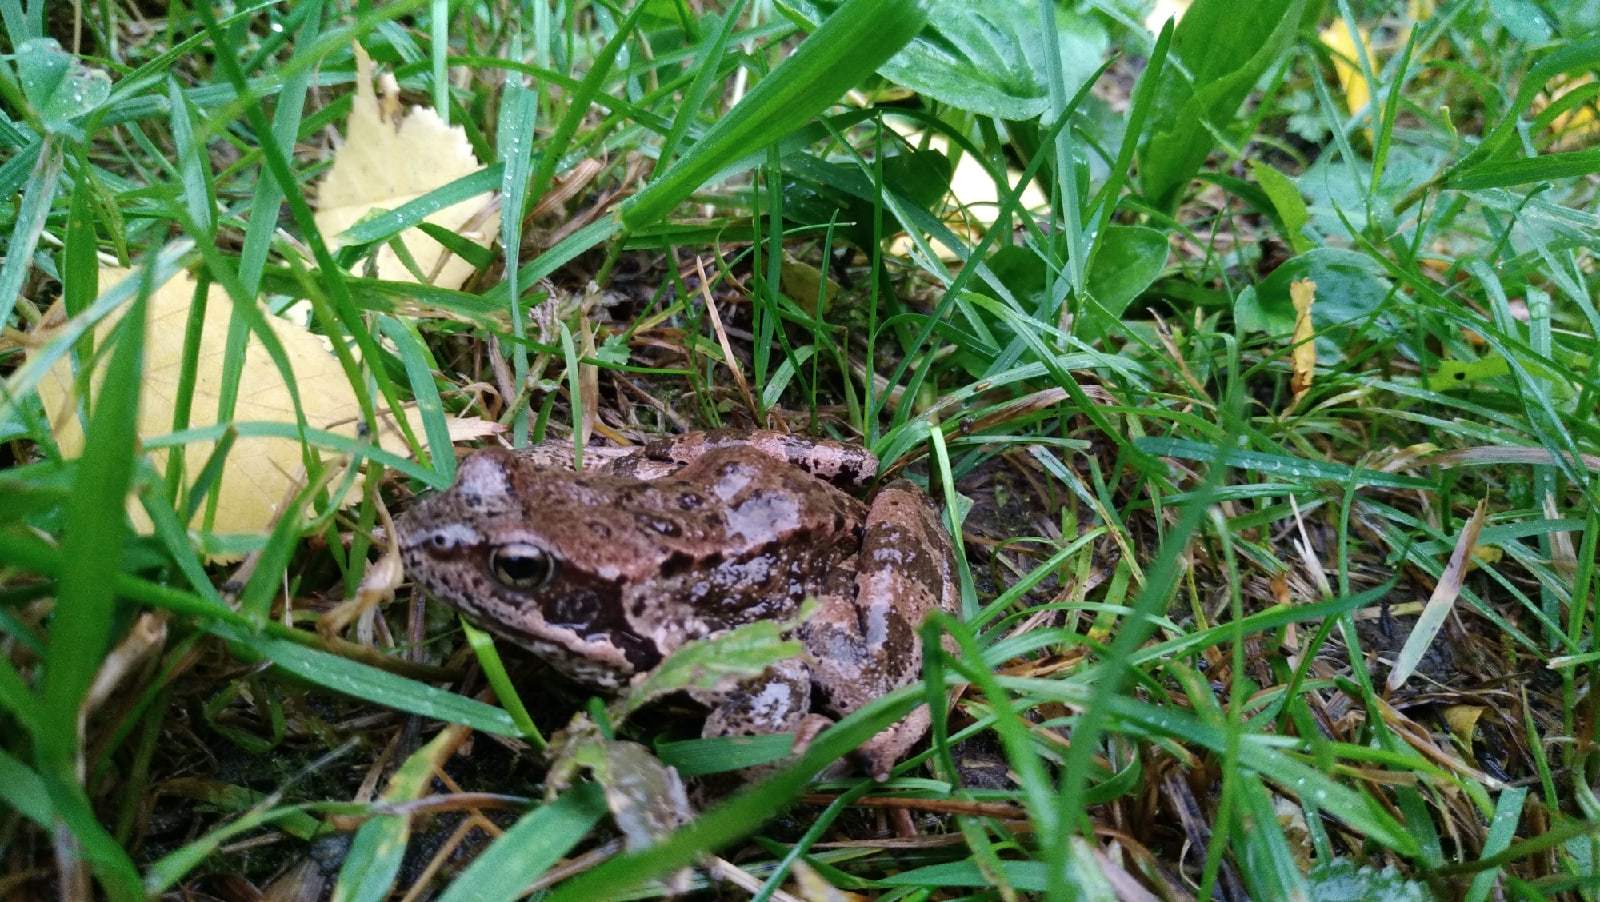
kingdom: Animalia
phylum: Chordata
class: Amphibia
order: Anura
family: Ranidae
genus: Rana
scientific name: Rana temporaria
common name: Common frog
